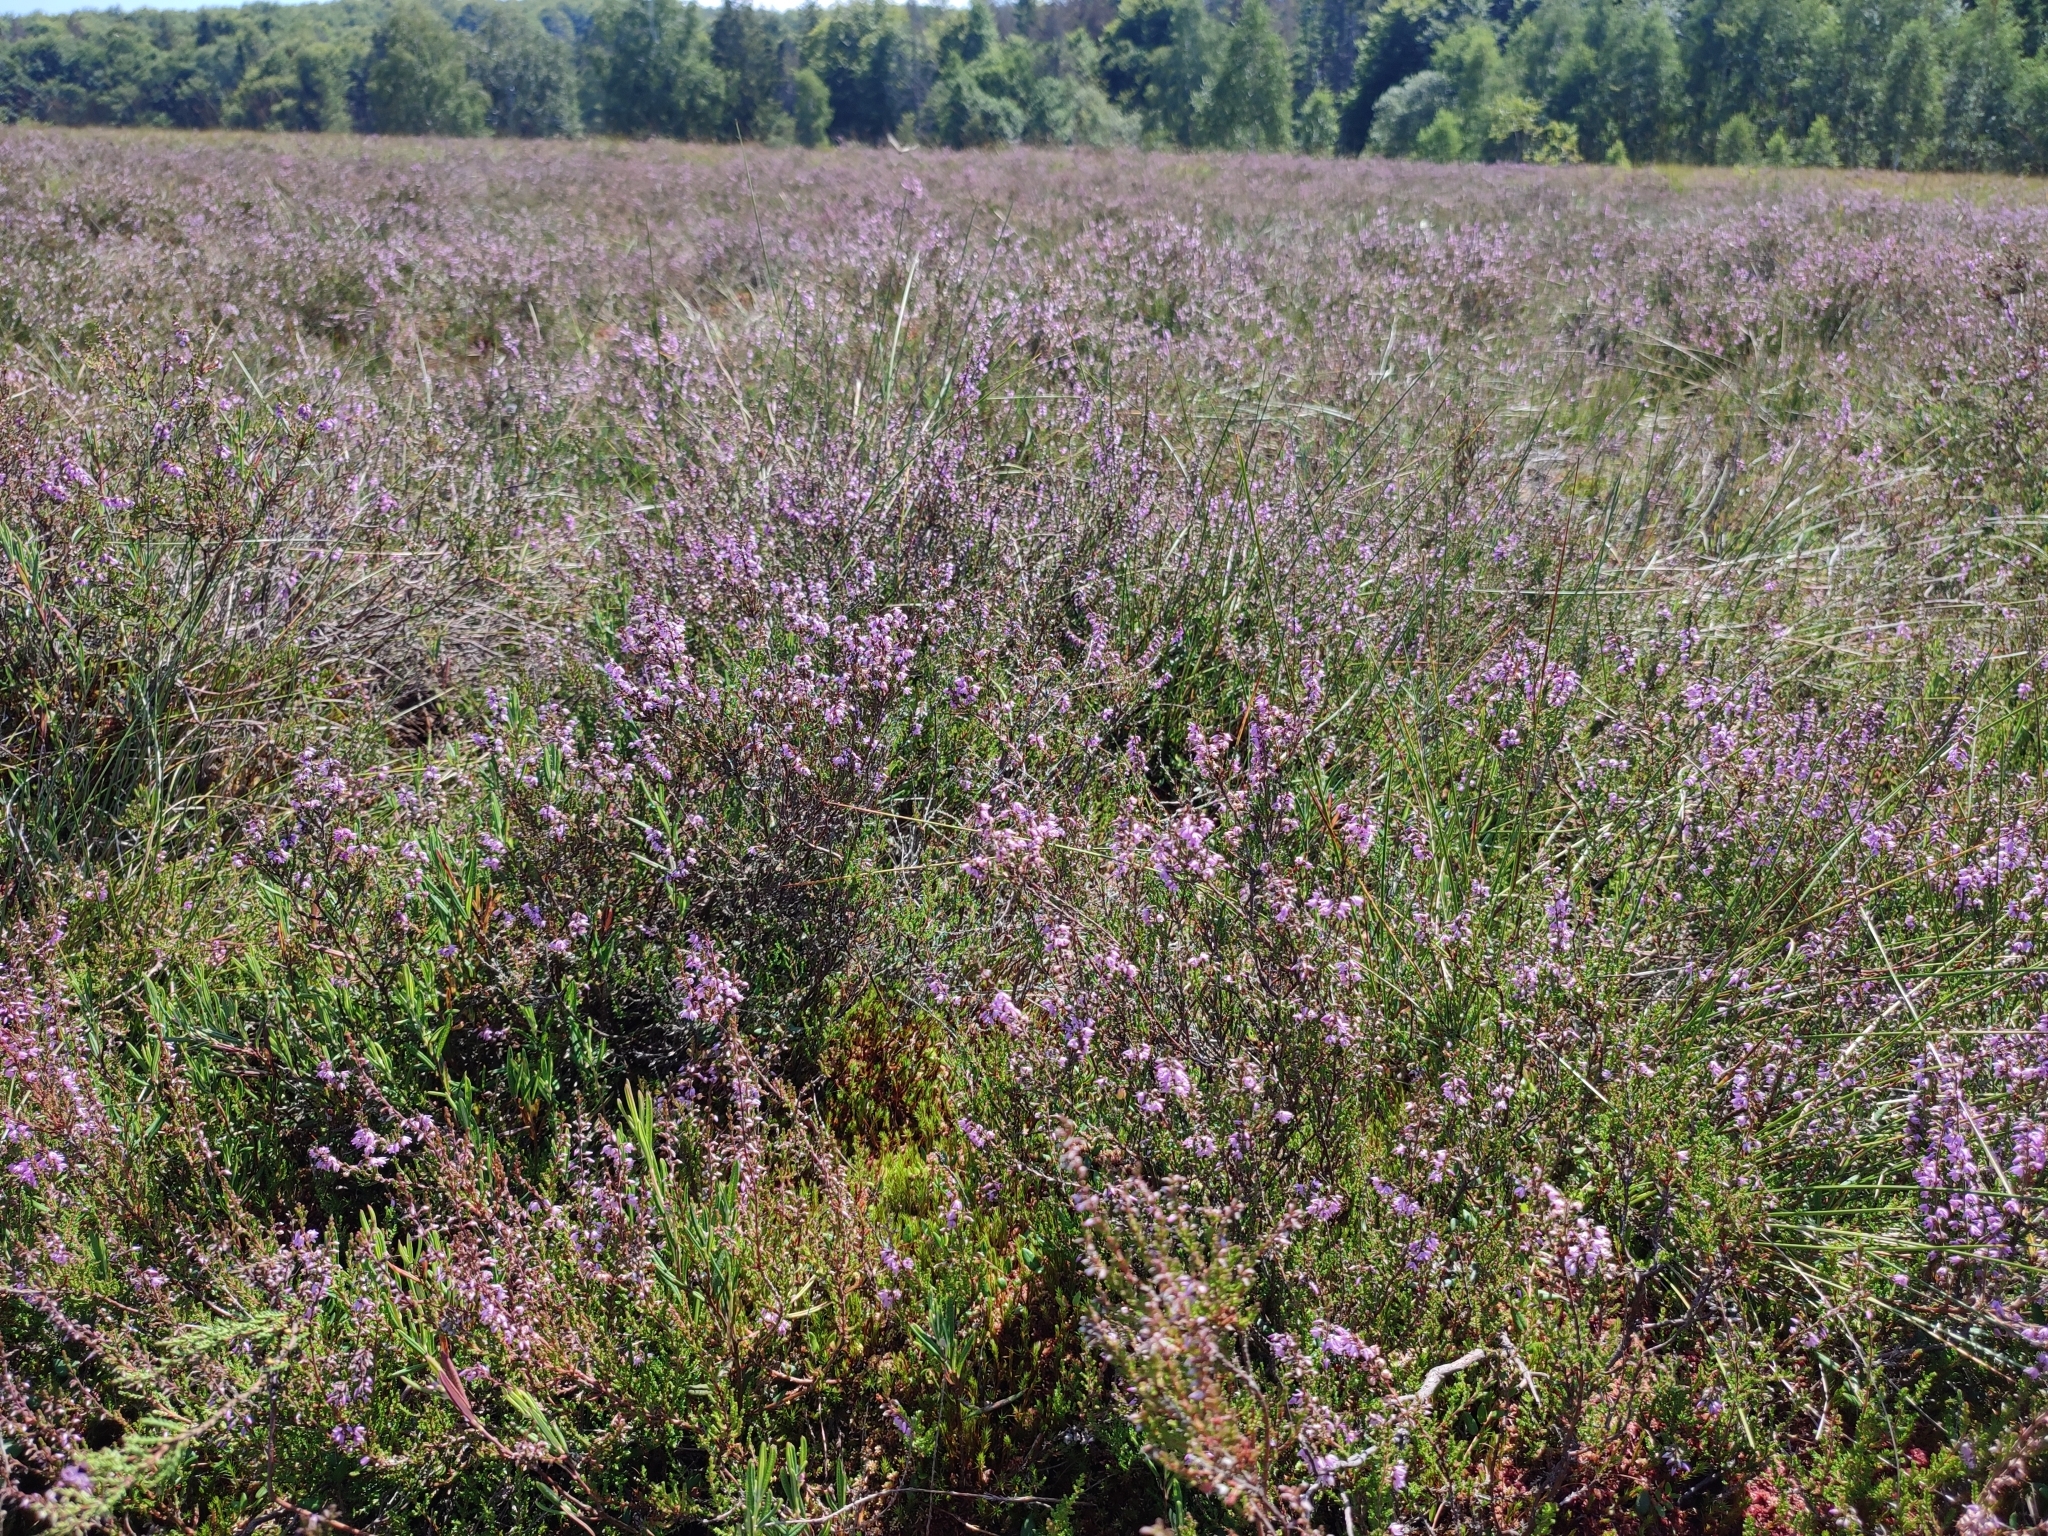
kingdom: Plantae
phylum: Tracheophyta
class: Magnoliopsida
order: Ericales
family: Ericaceae
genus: Calluna
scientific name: Calluna vulgaris
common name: Heather
